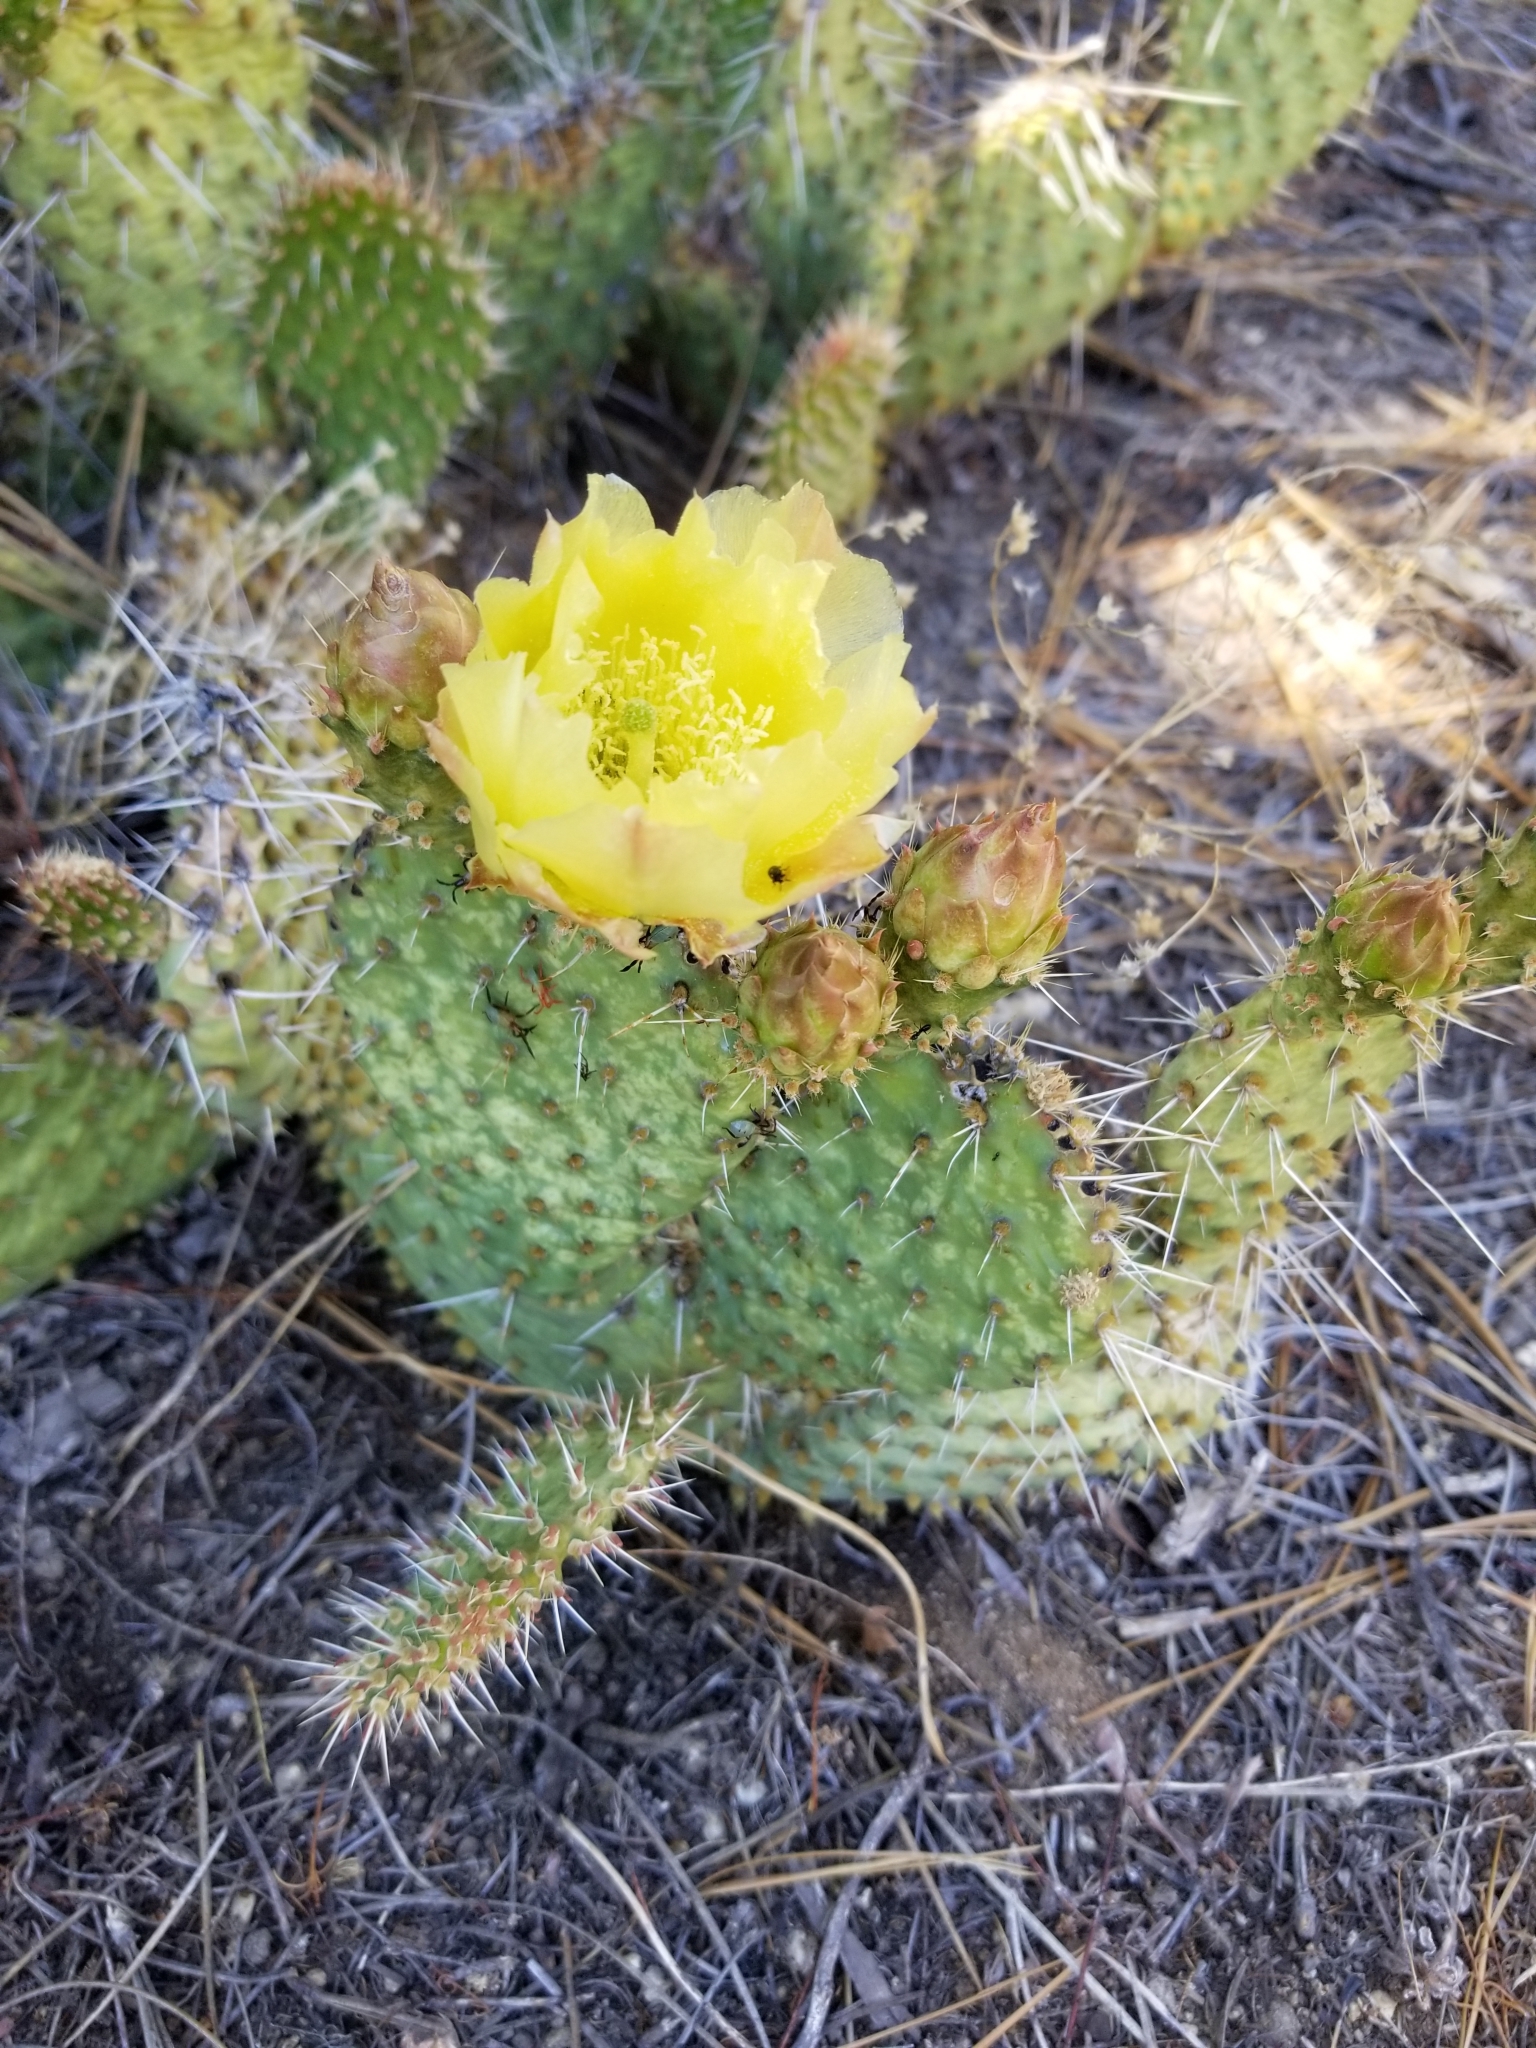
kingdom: Plantae
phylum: Tracheophyta
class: Magnoliopsida
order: Caryophyllales
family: Cactaceae
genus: Opuntia
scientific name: Opuntia polyacantha
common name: Plains prickly-pear
